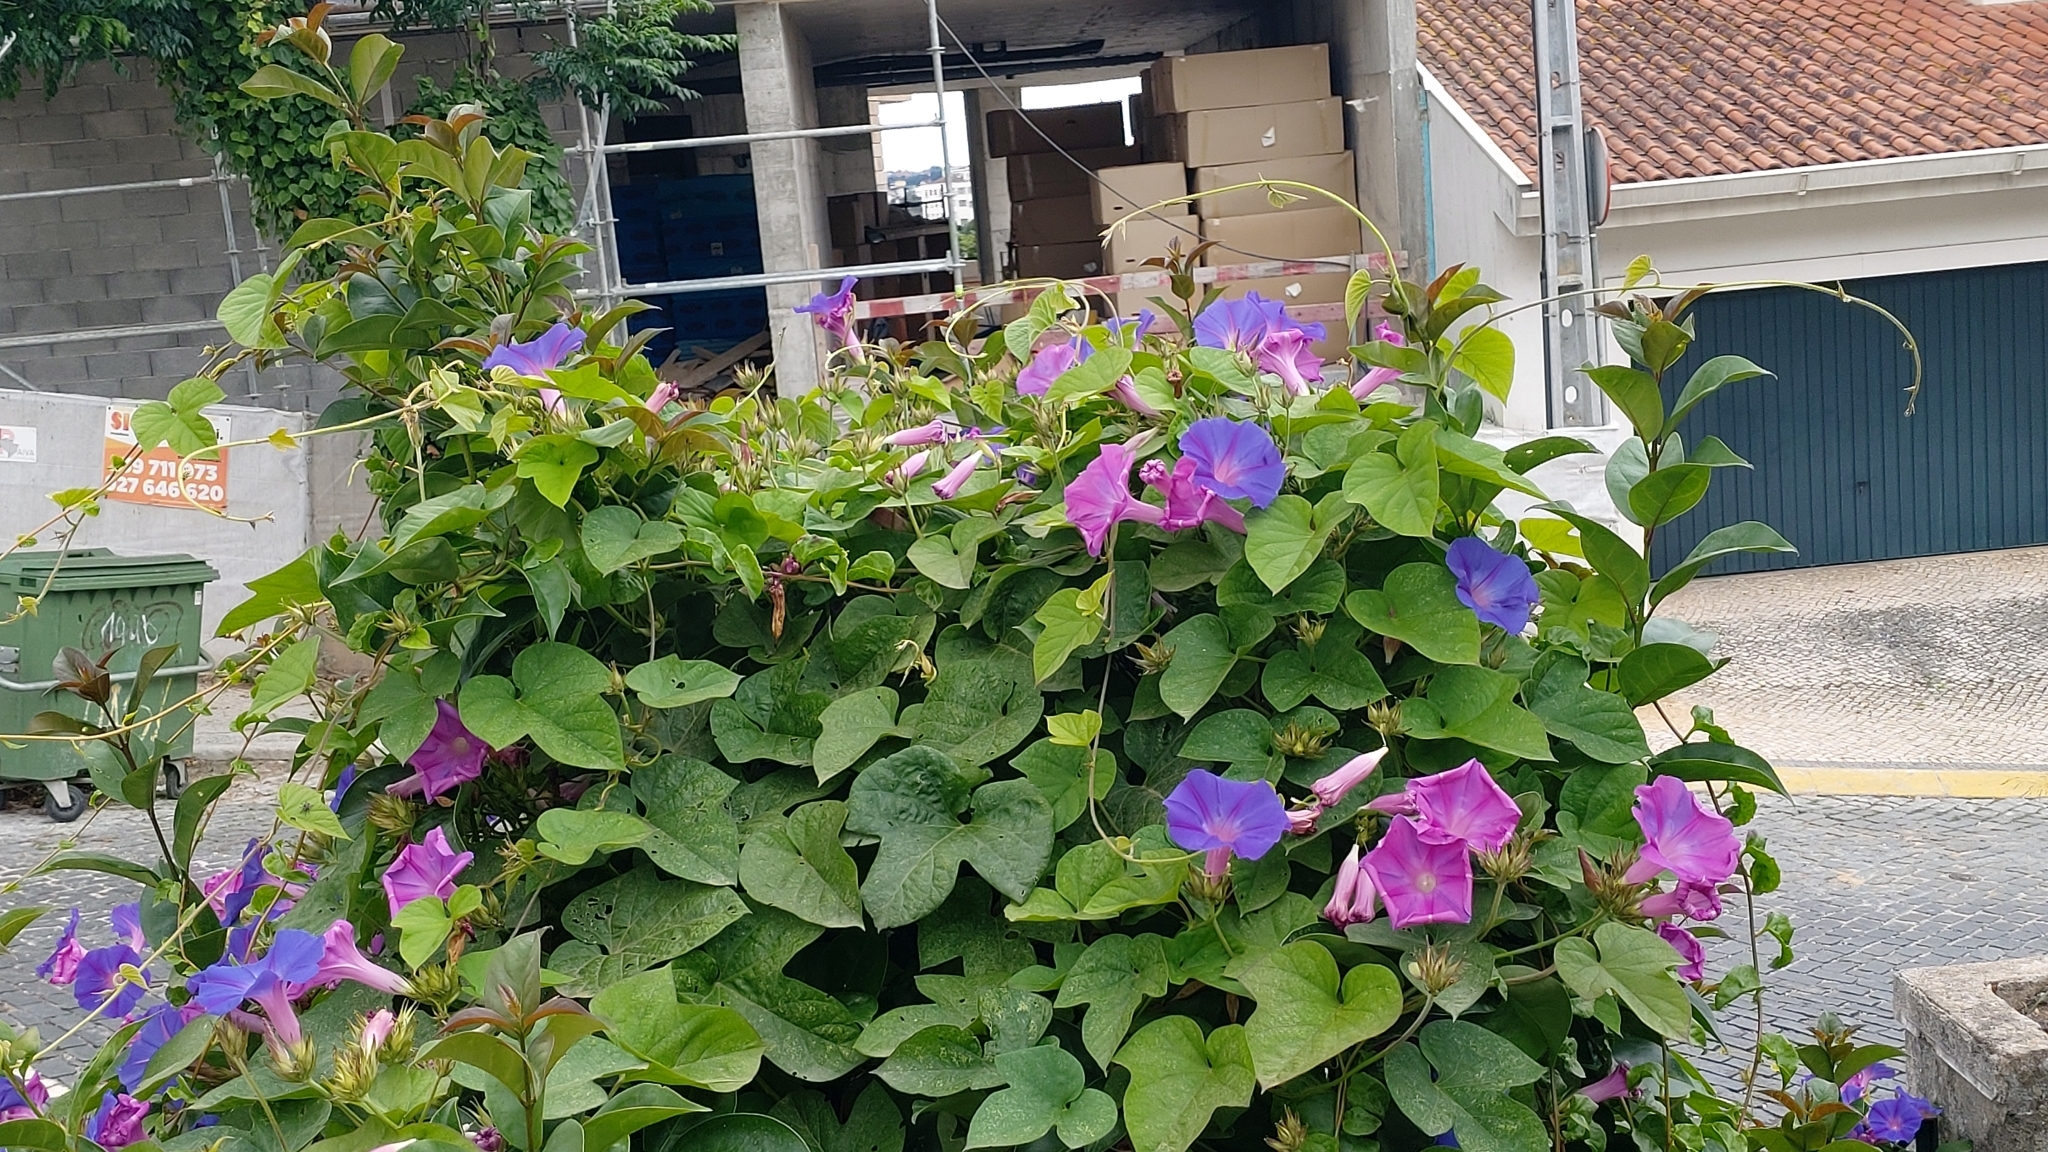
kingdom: Plantae
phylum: Tracheophyta
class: Magnoliopsida
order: Solanales
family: Convolvulaceae
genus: Ipomoea
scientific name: Ipomoea indica
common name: Blue dawnflower
